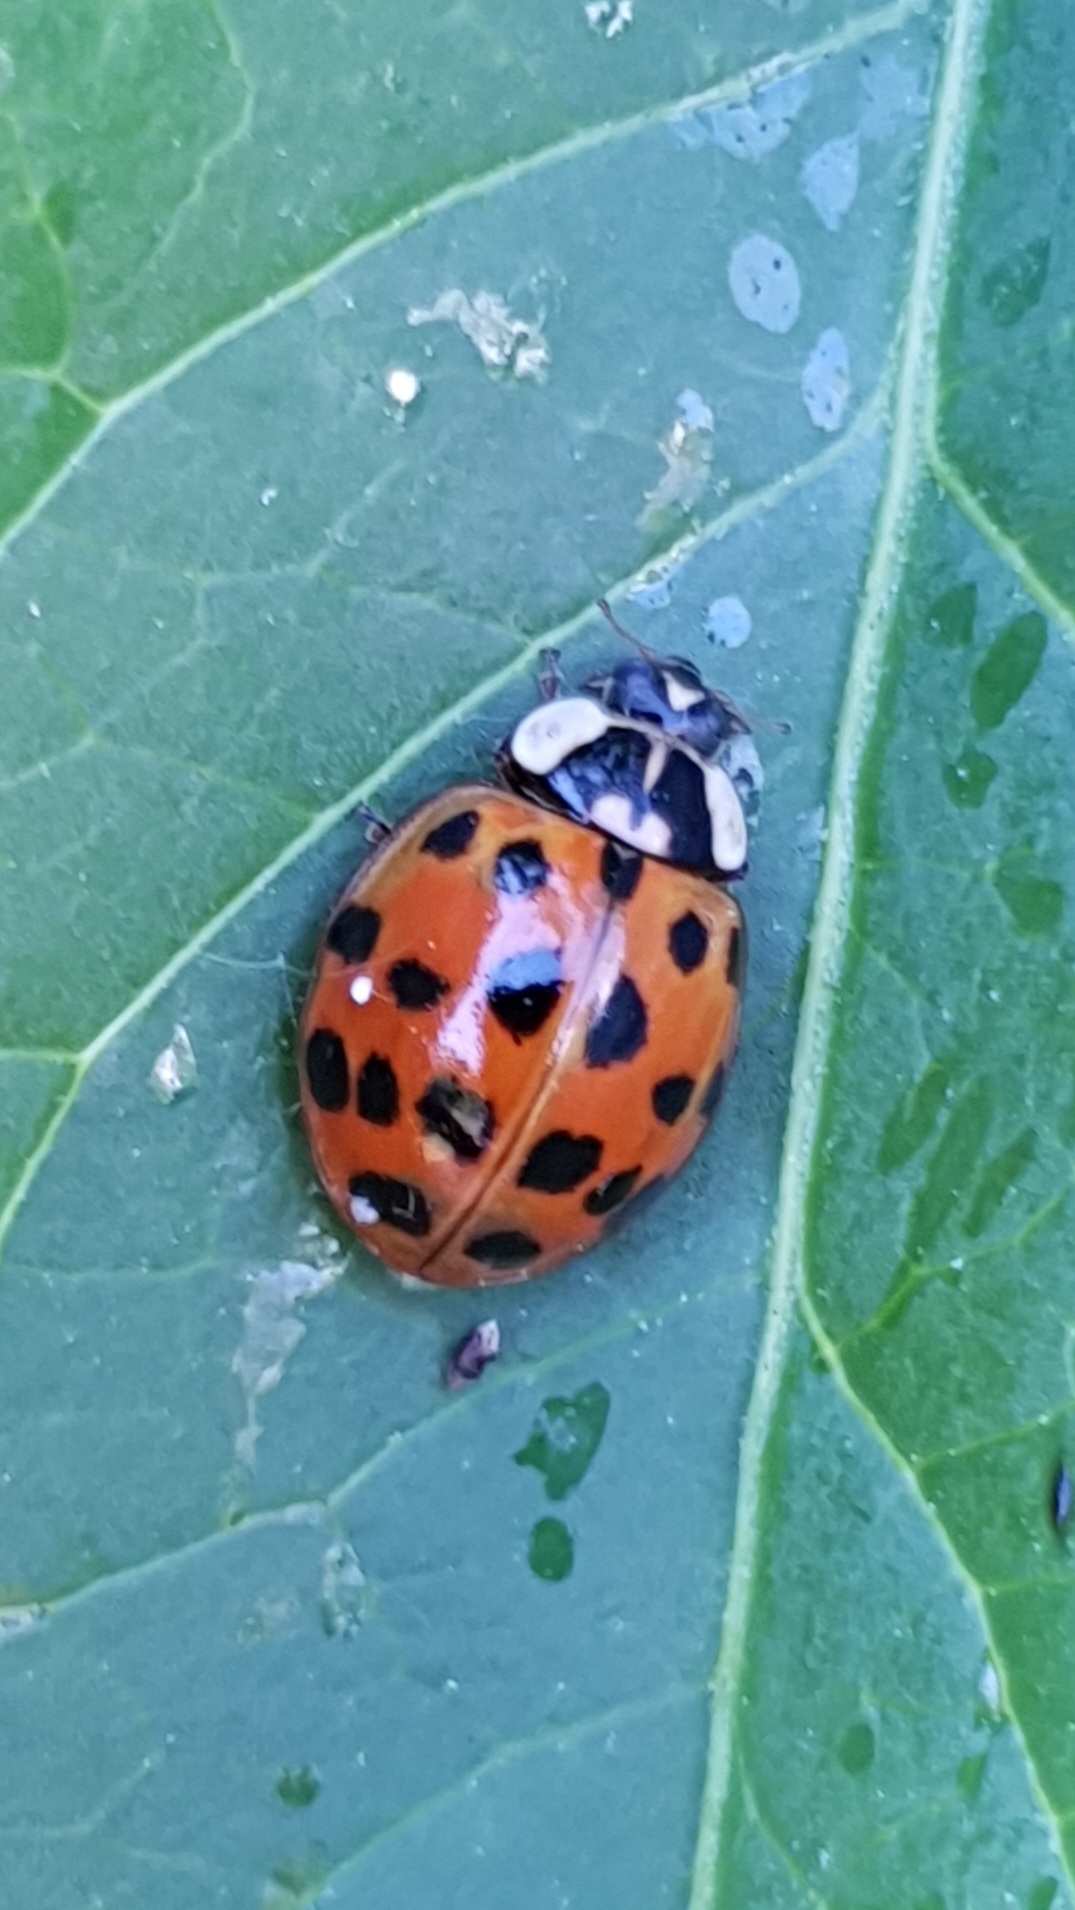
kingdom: Animalia
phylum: Arthropoda
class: Insecta
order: Coleoptera
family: Coccinellidae
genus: Harmonia
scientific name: Harmonia axyridis
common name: Harlequin ladybird
